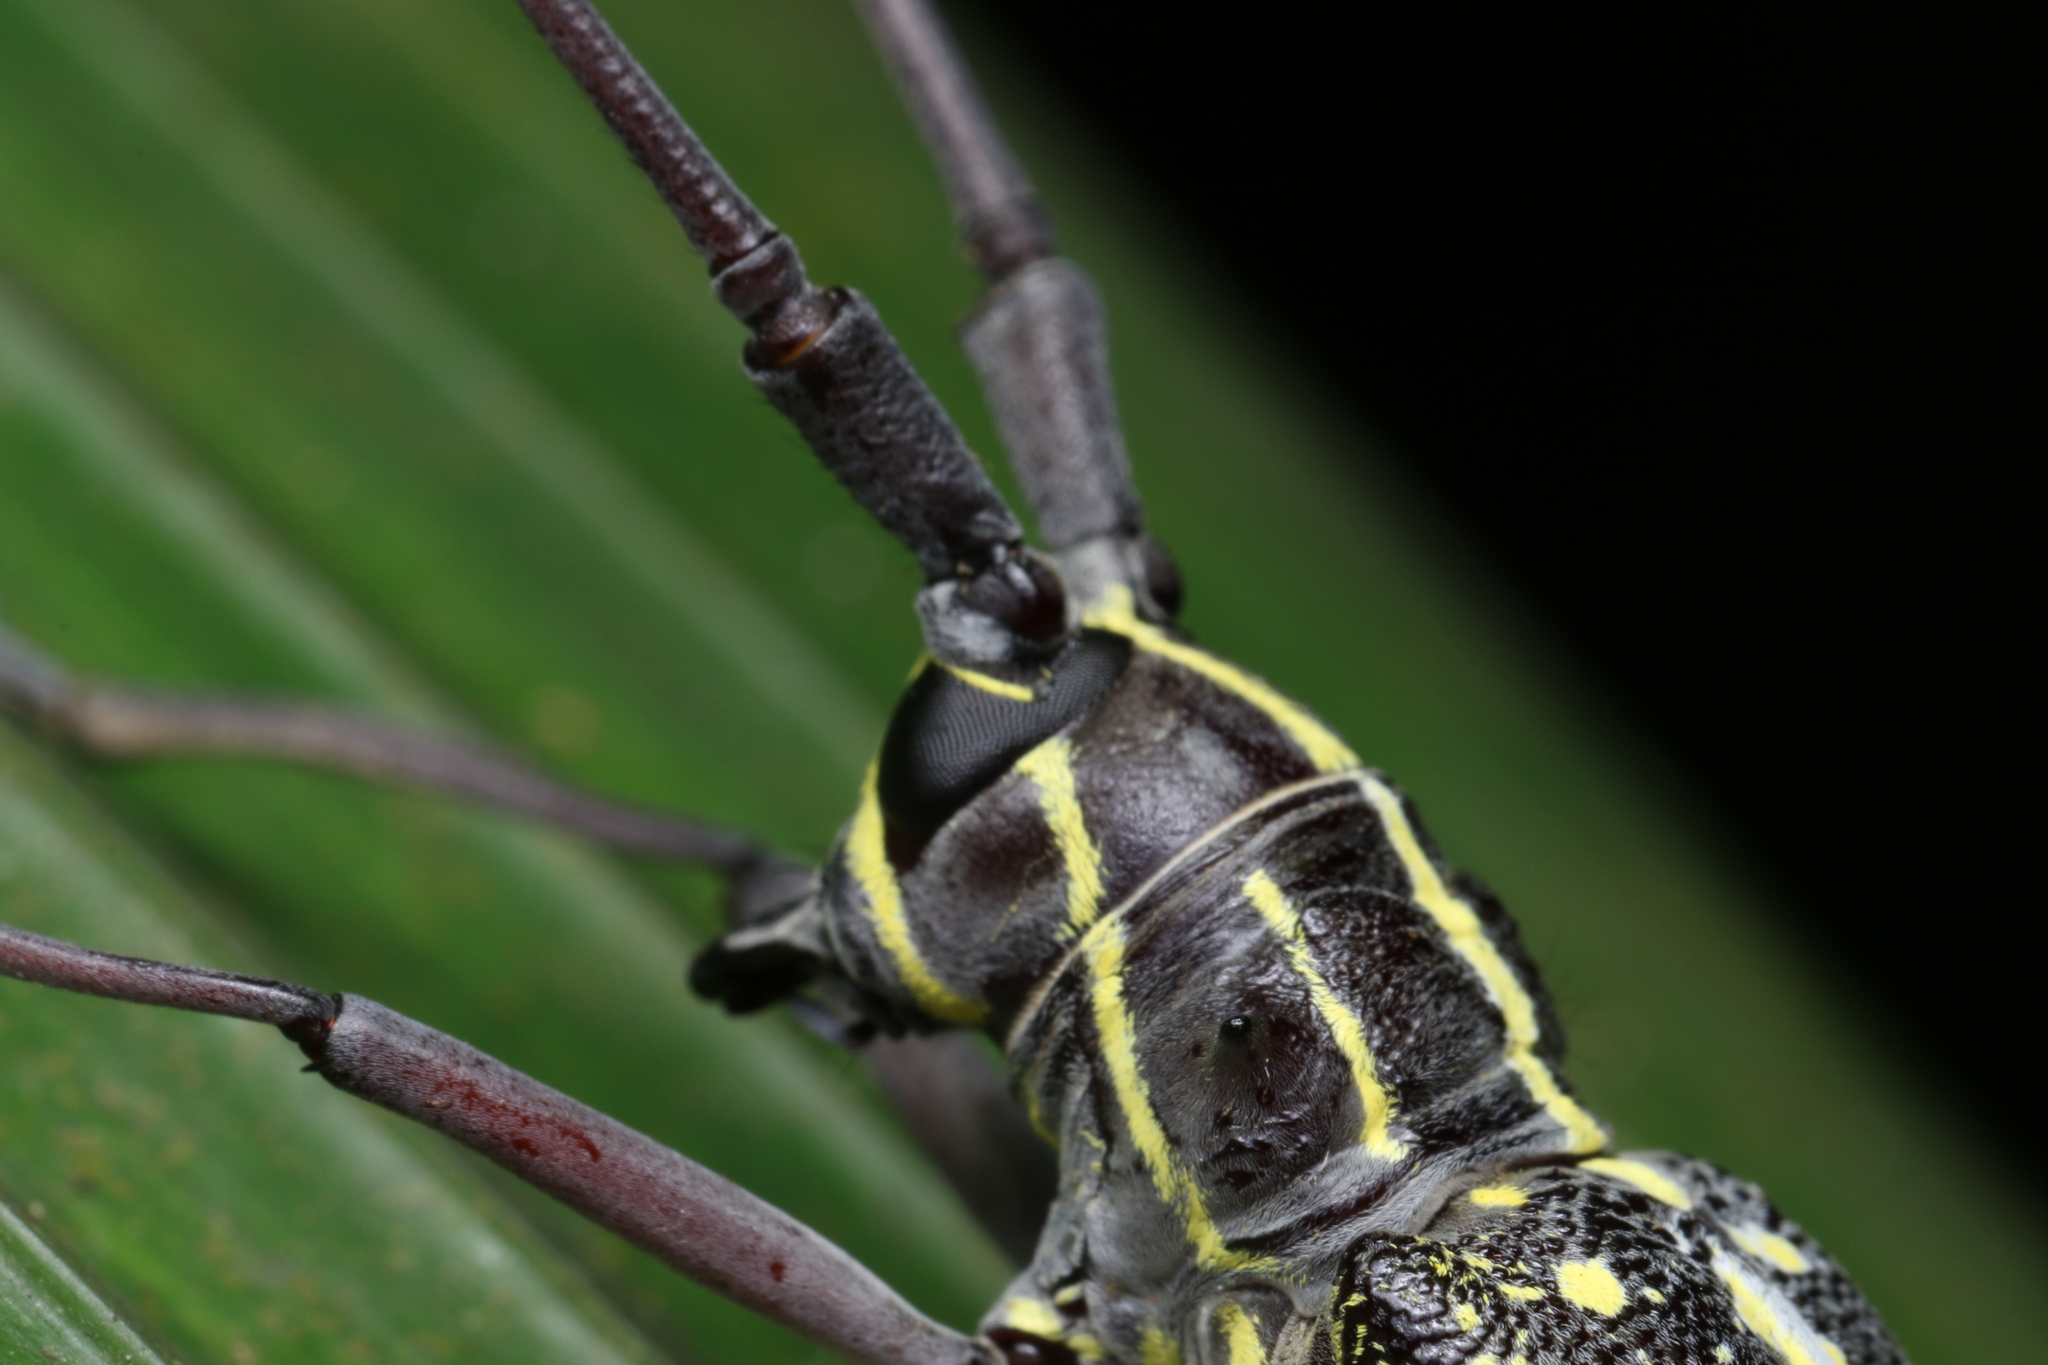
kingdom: Animalia
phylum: Arthropoda
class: Insecta
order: Coleoptera
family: Cerambycidae
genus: Taeniotes
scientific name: Taeniotes amazonum
